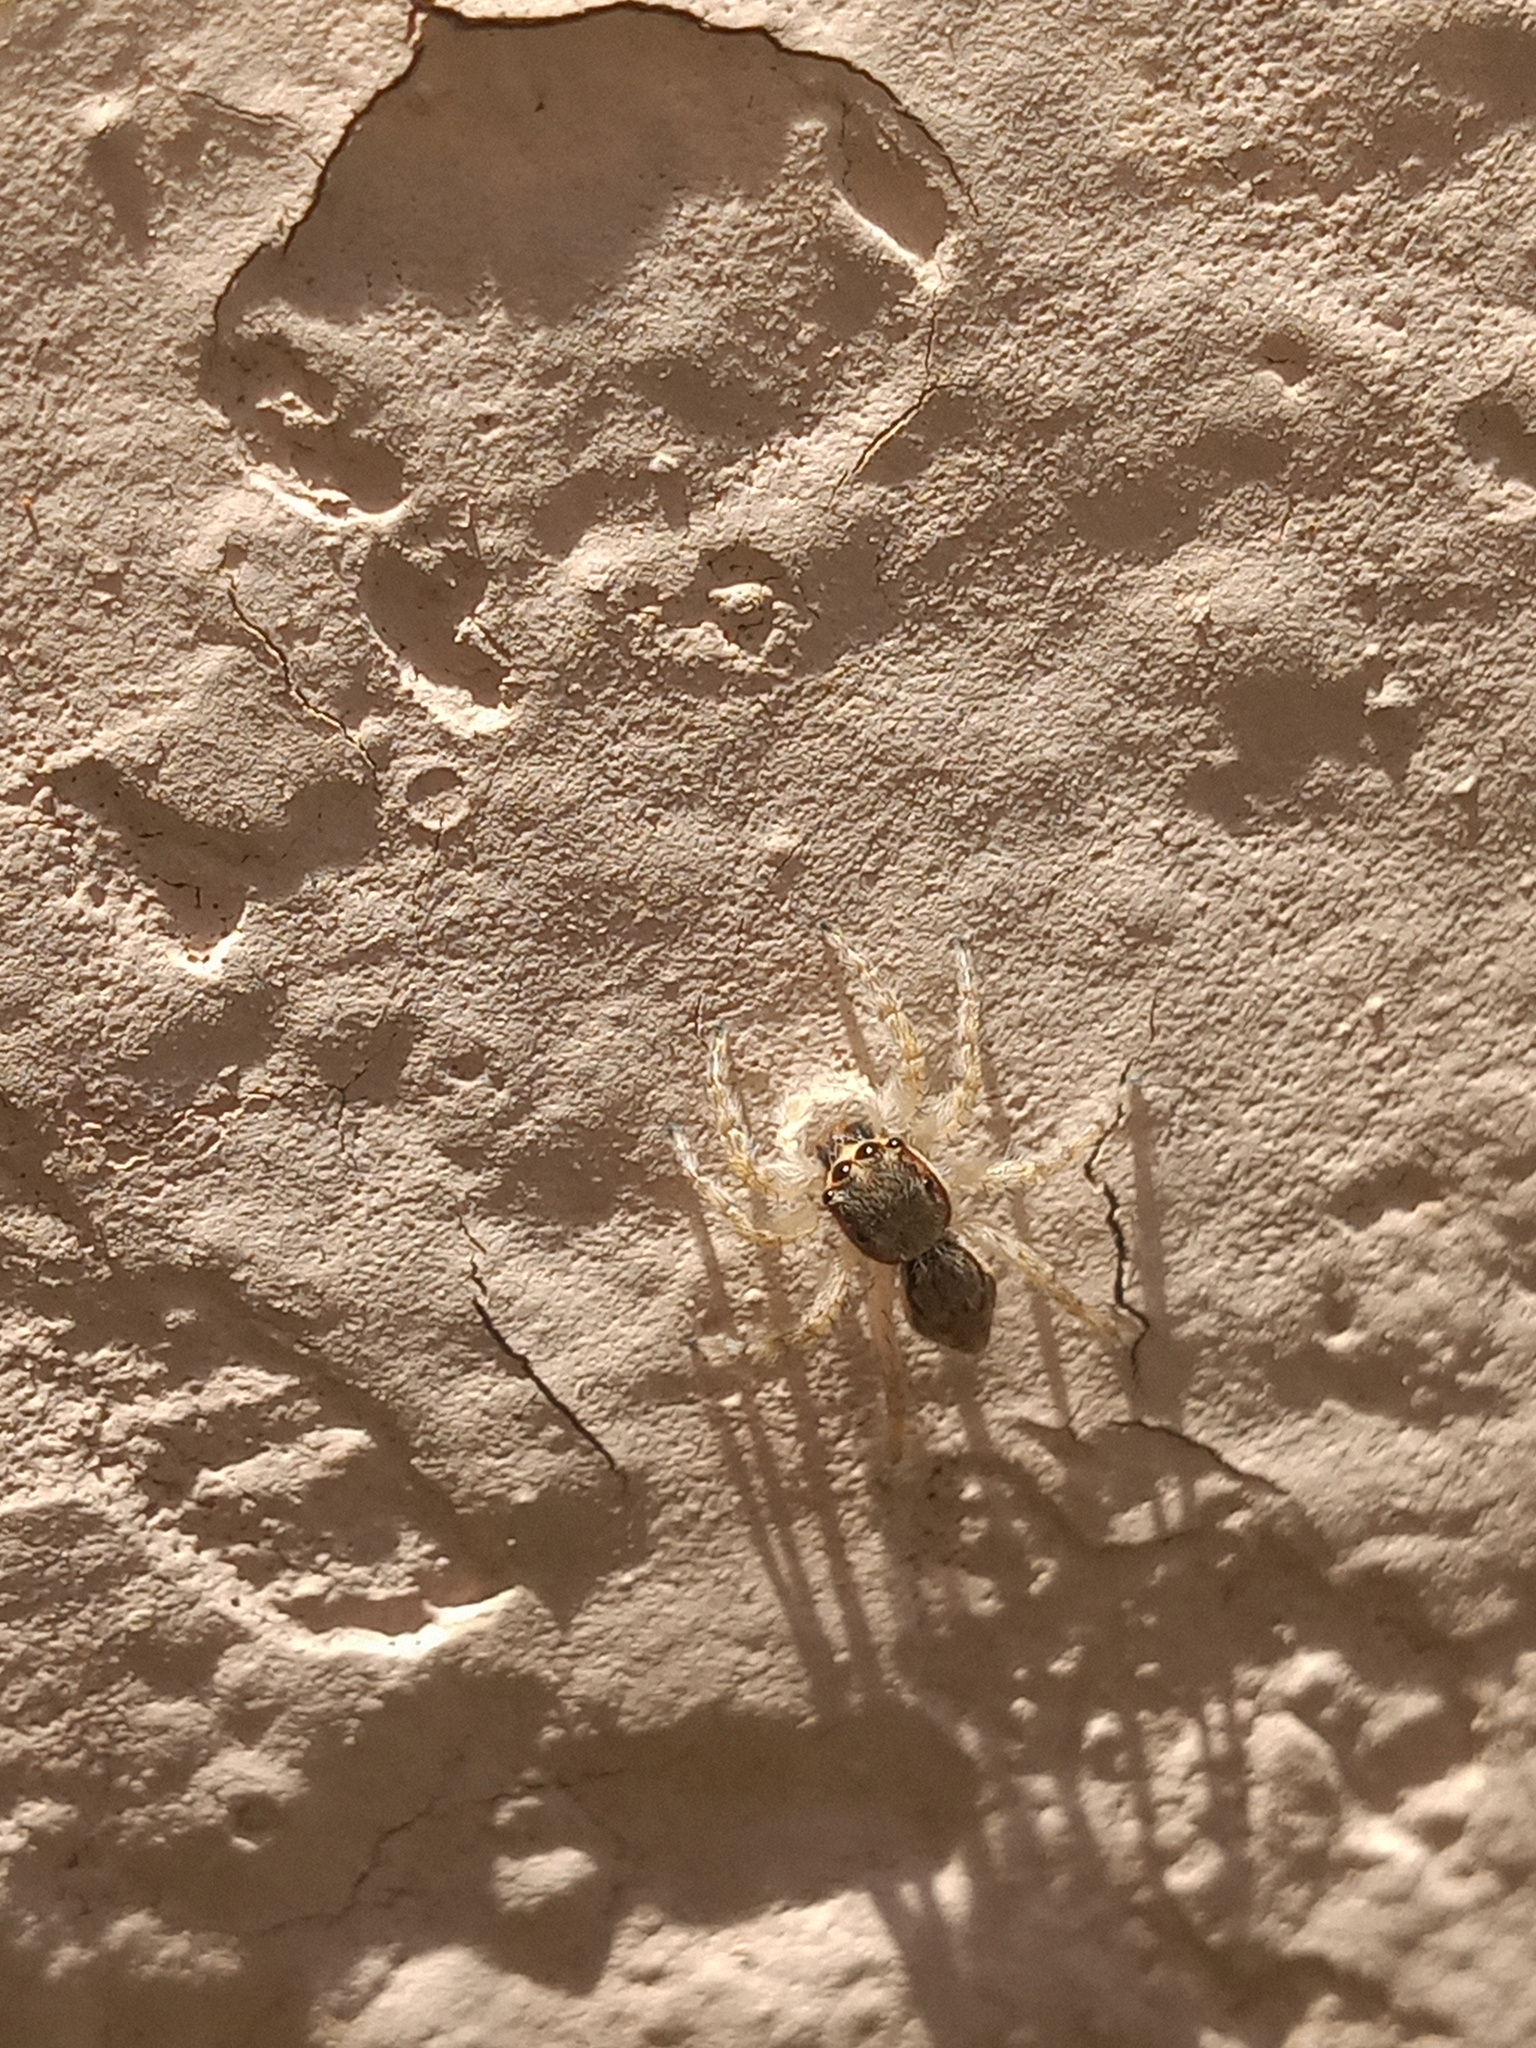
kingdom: Animalia
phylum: Arthropoda
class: Arachnida
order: Araneae
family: Salticidae
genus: Menemerus
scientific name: Menemerus bivittatus
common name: Gray wall jumper
